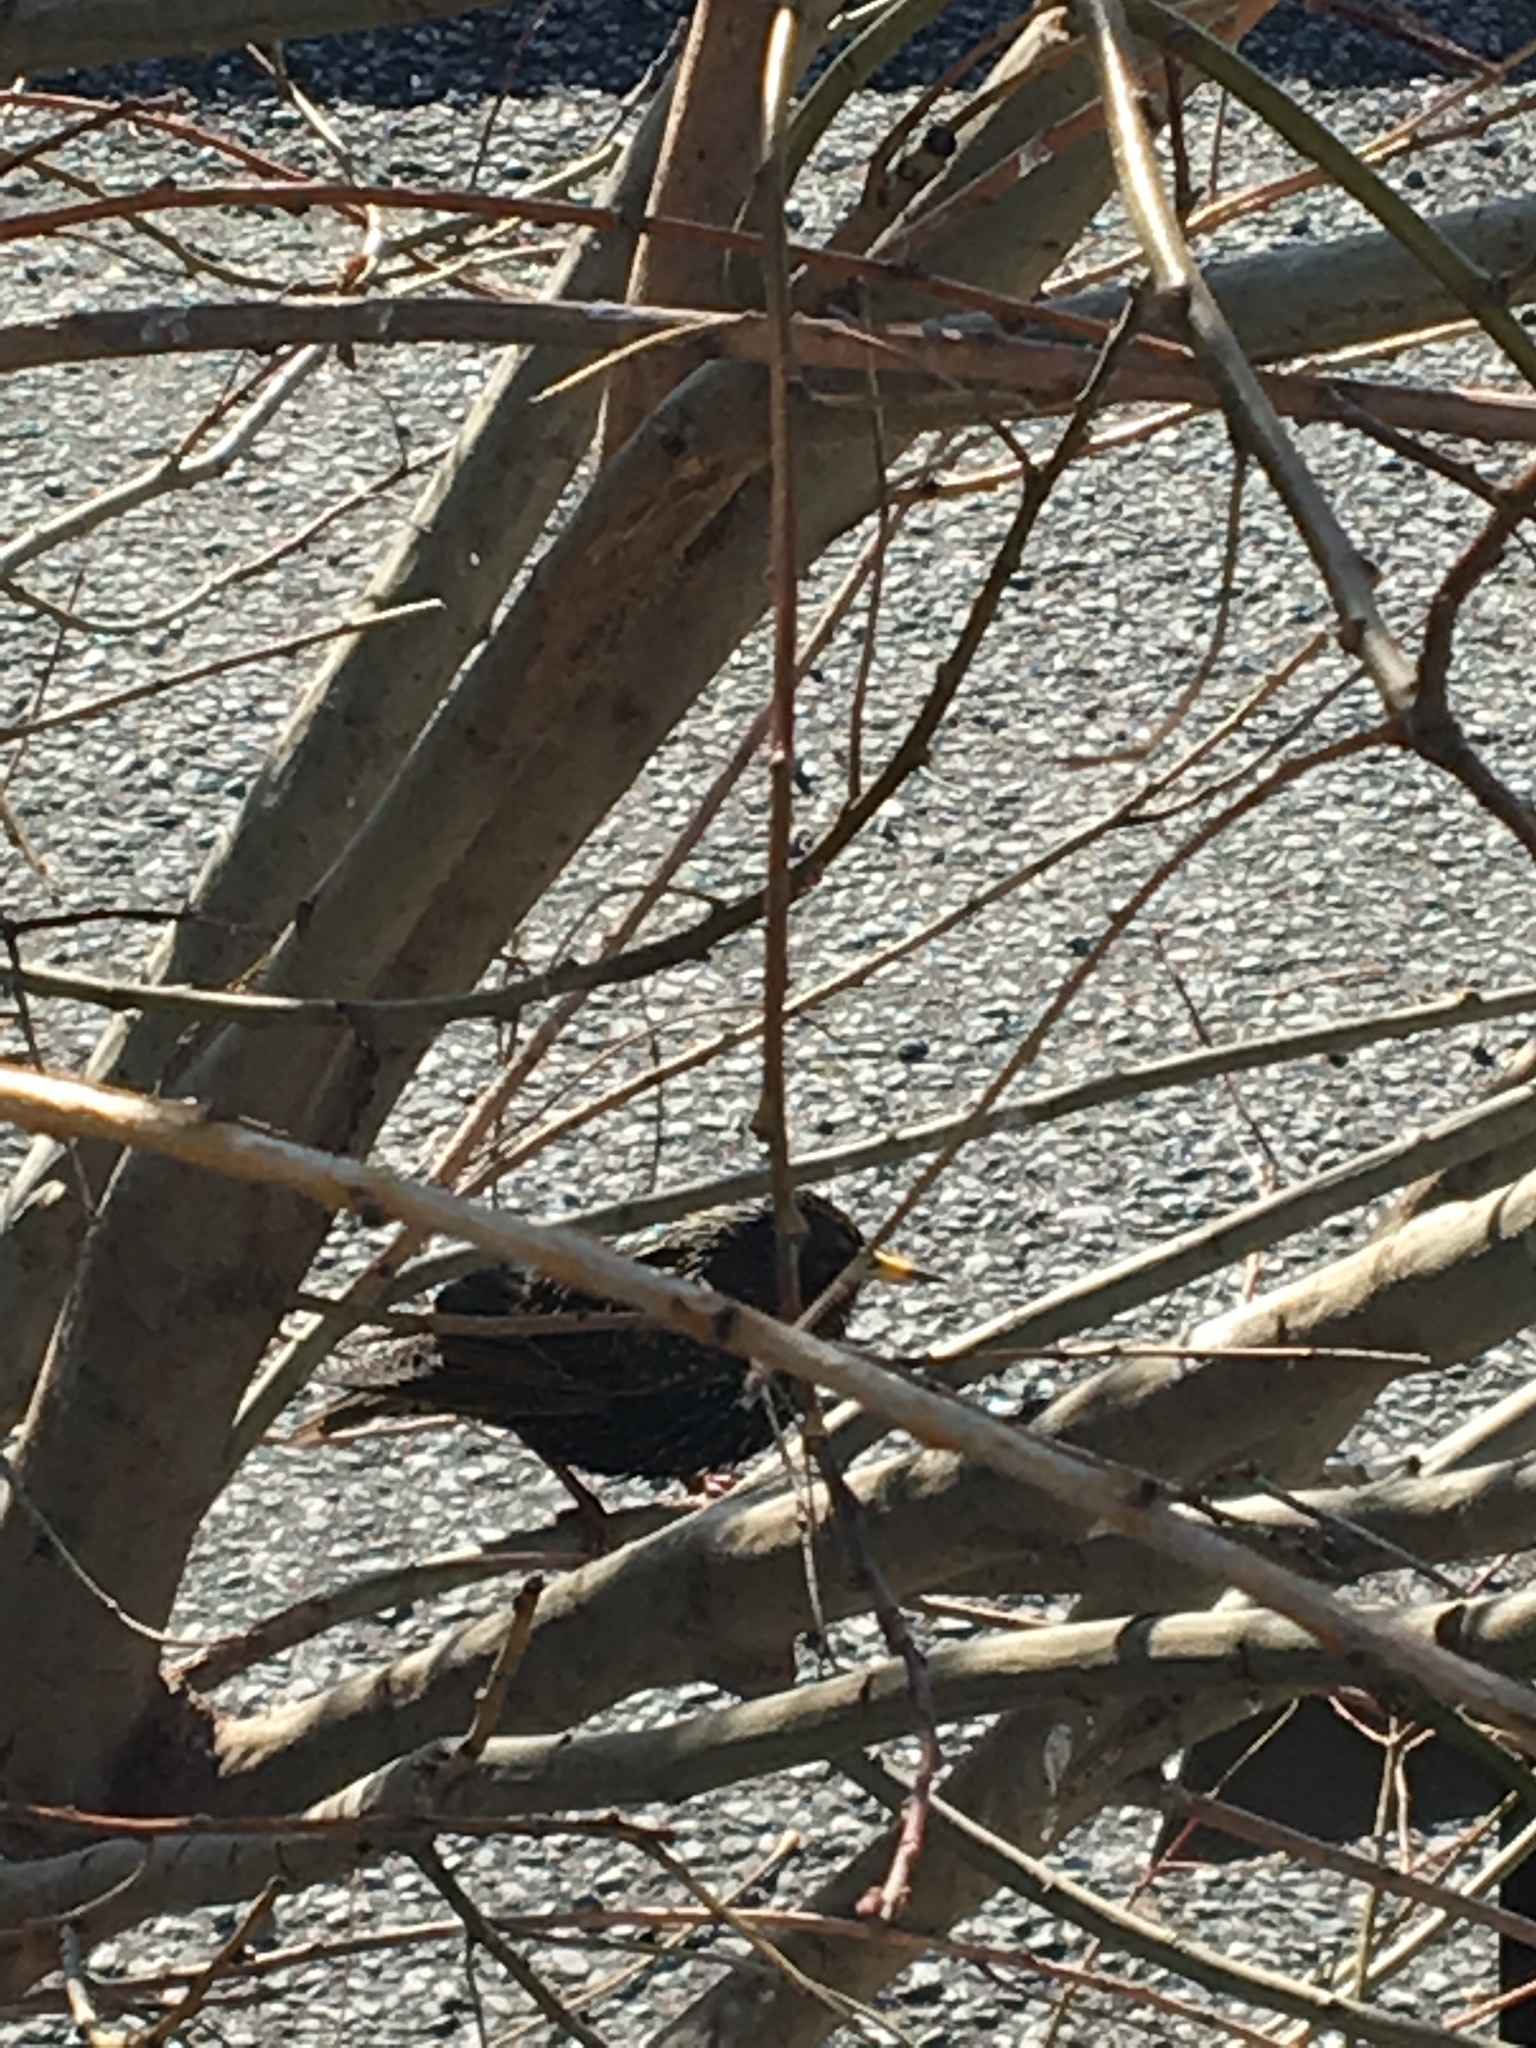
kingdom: Animalia
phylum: Chordata
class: Aves
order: Passeriformes
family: Sturnidae
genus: Sturnus
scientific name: Sturnus vulgaris
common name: Common starling
